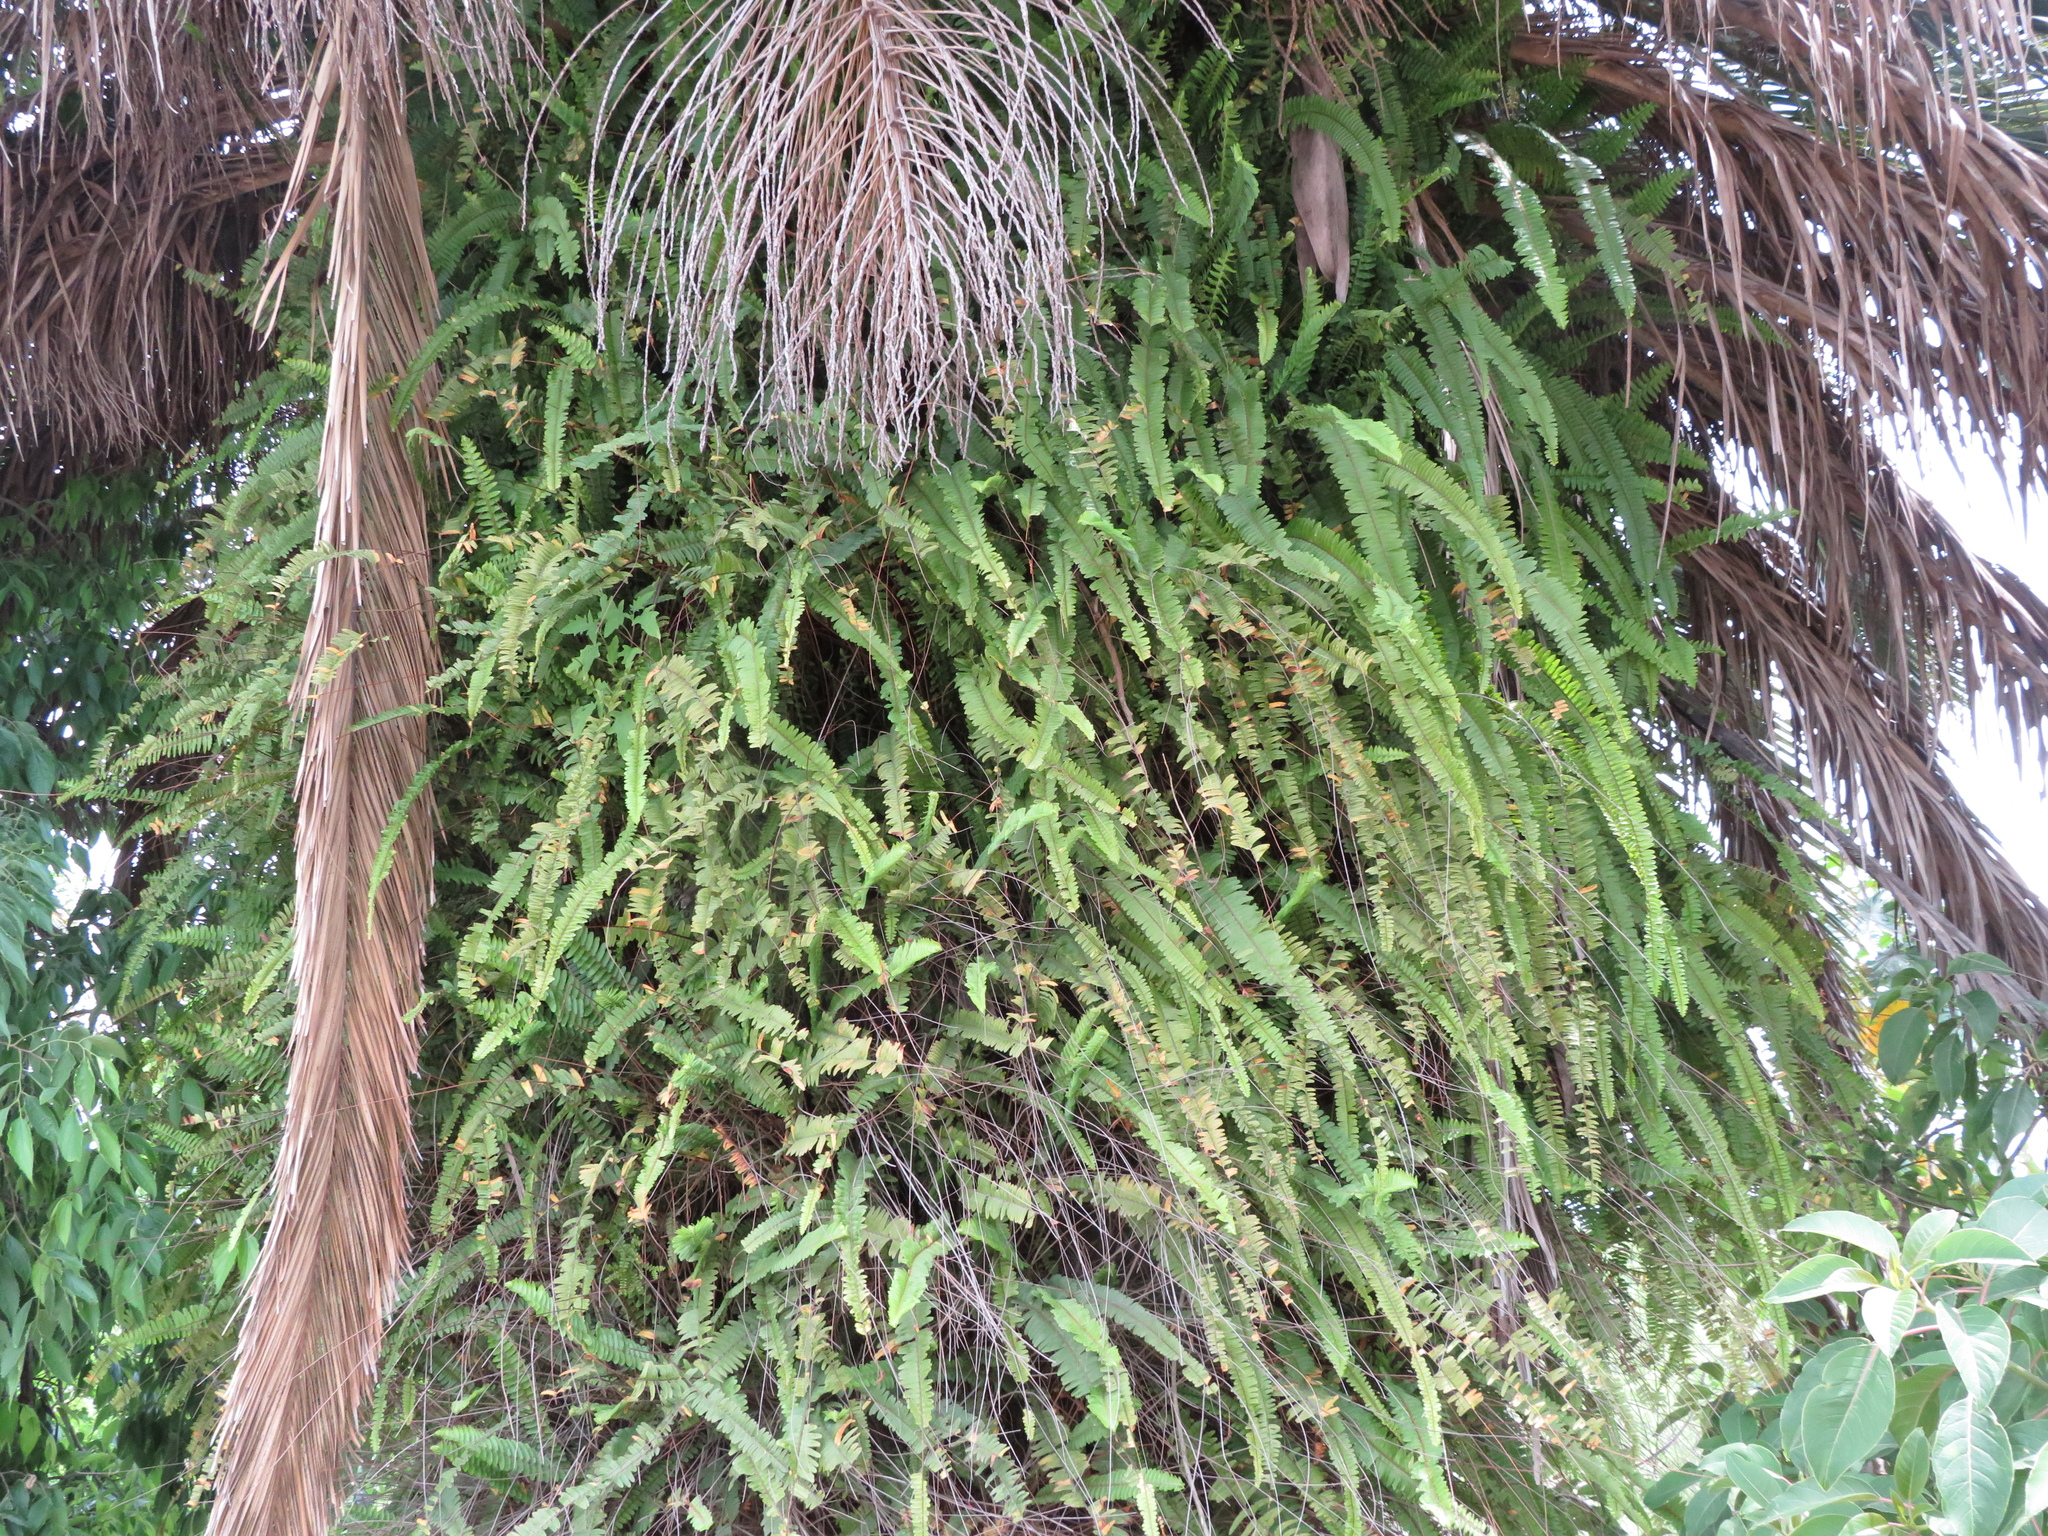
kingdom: Plantae
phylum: Tracheophyta
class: Polypodiopsida
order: Polypodiales
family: Nephrolepidaceae
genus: Nephrolepis
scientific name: Nephrolepis cordifolia
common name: Narrow swordfern
